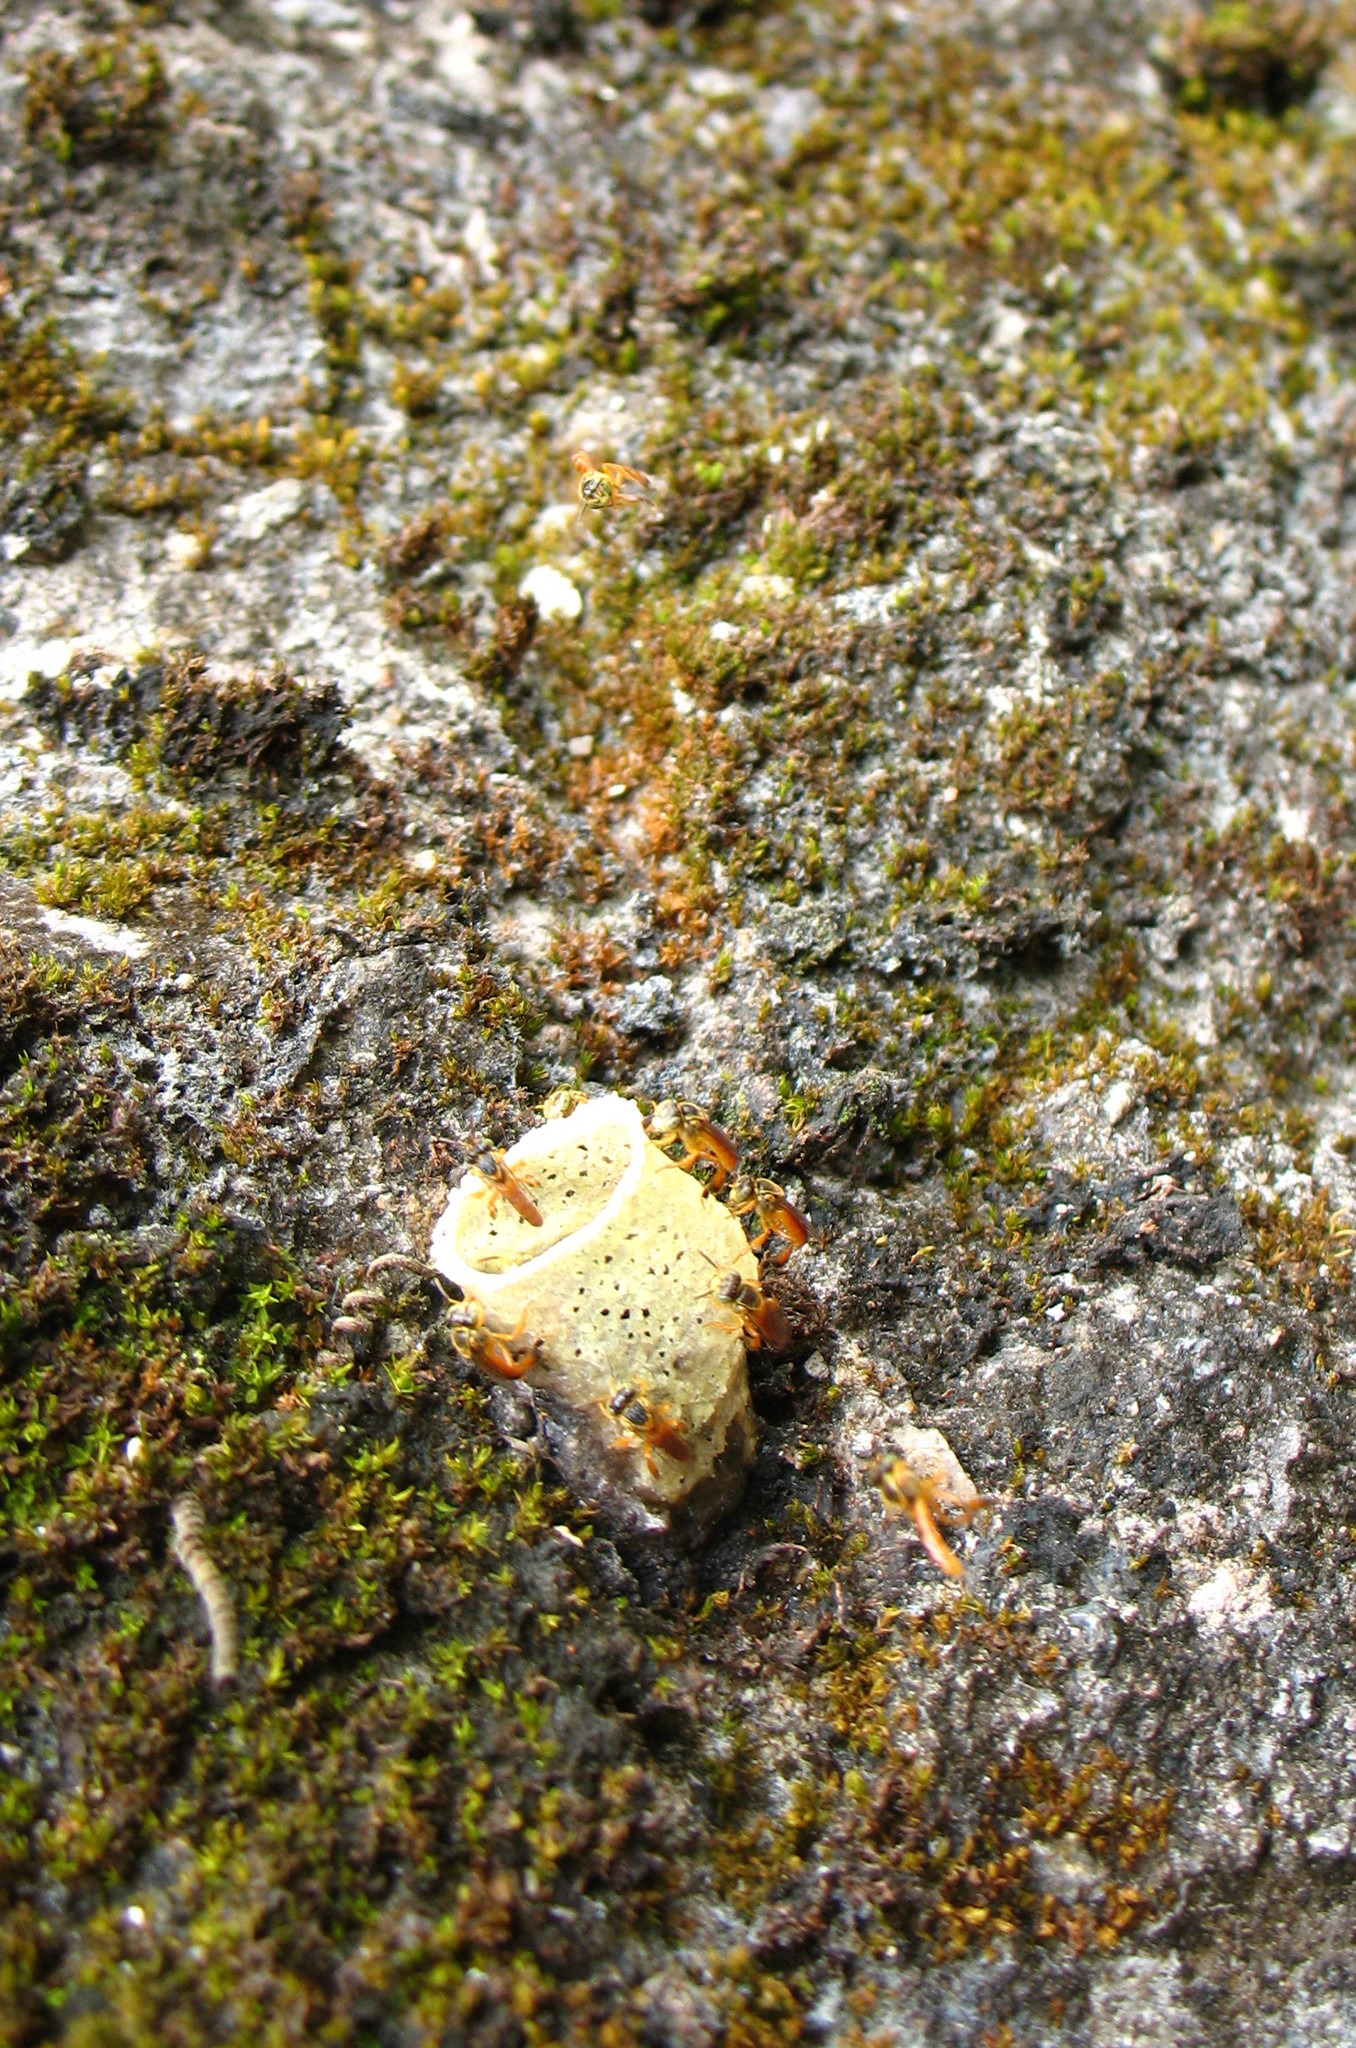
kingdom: Animalia
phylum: Arthropoda
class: Insecta
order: Hymenoptera
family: Apidae
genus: Tetragonisca
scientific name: Tetragonisca angustula
